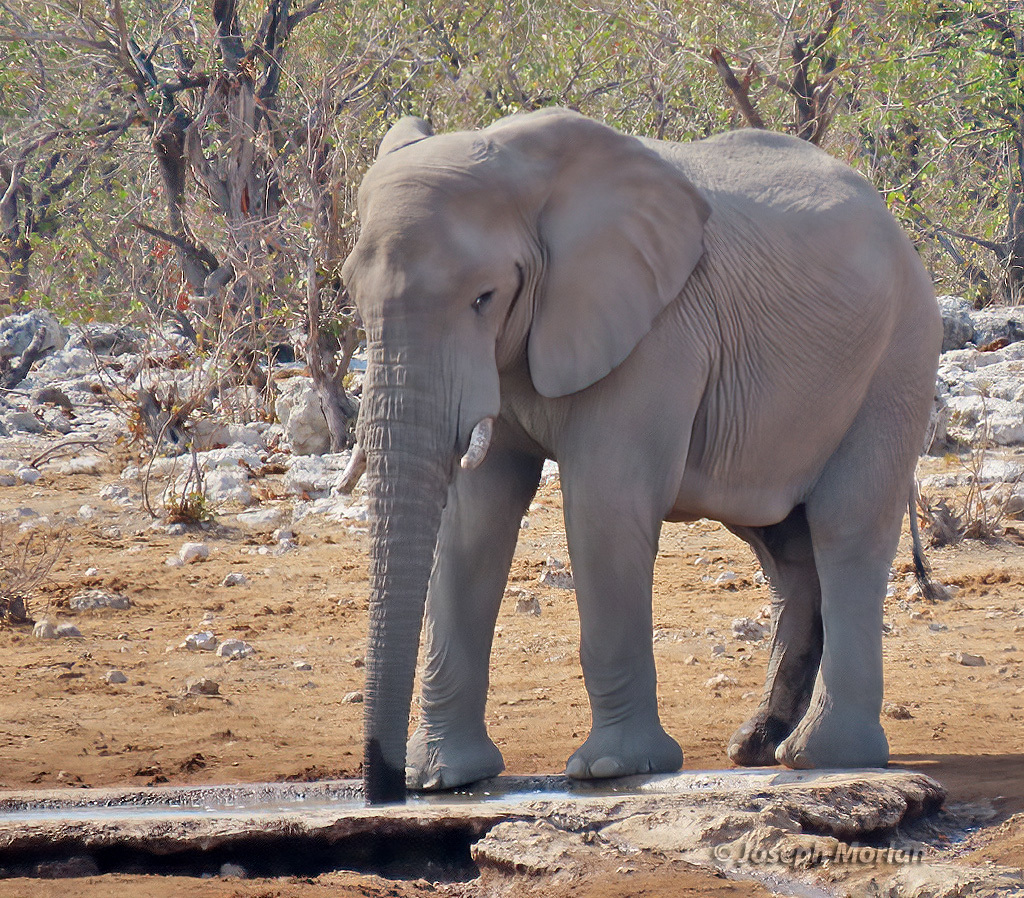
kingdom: Animalia
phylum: Chordata
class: Mammalia
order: Proboscidea
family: Elephantidae
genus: Loxodonta
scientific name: Loxodonta africana
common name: African elephant
